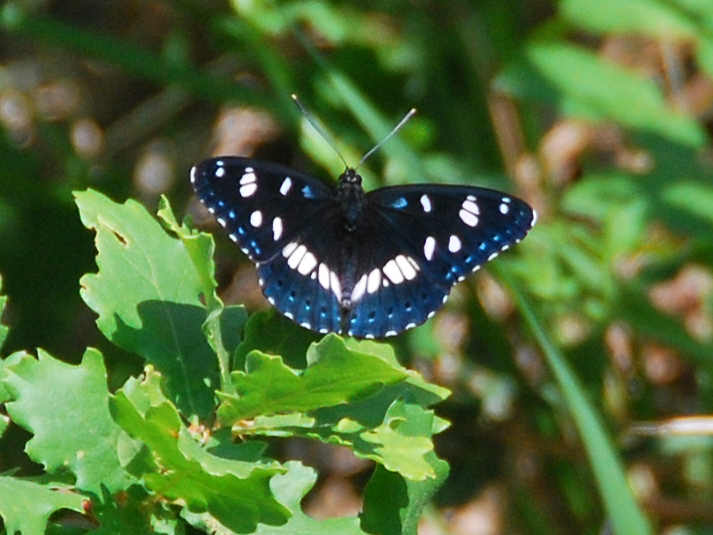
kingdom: Animalia
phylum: Arthropoda
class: Insecta
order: Lepidoptera
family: Nymphalidae
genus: Limenitis
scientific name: Limenitis reducta
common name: Southern white admiral
